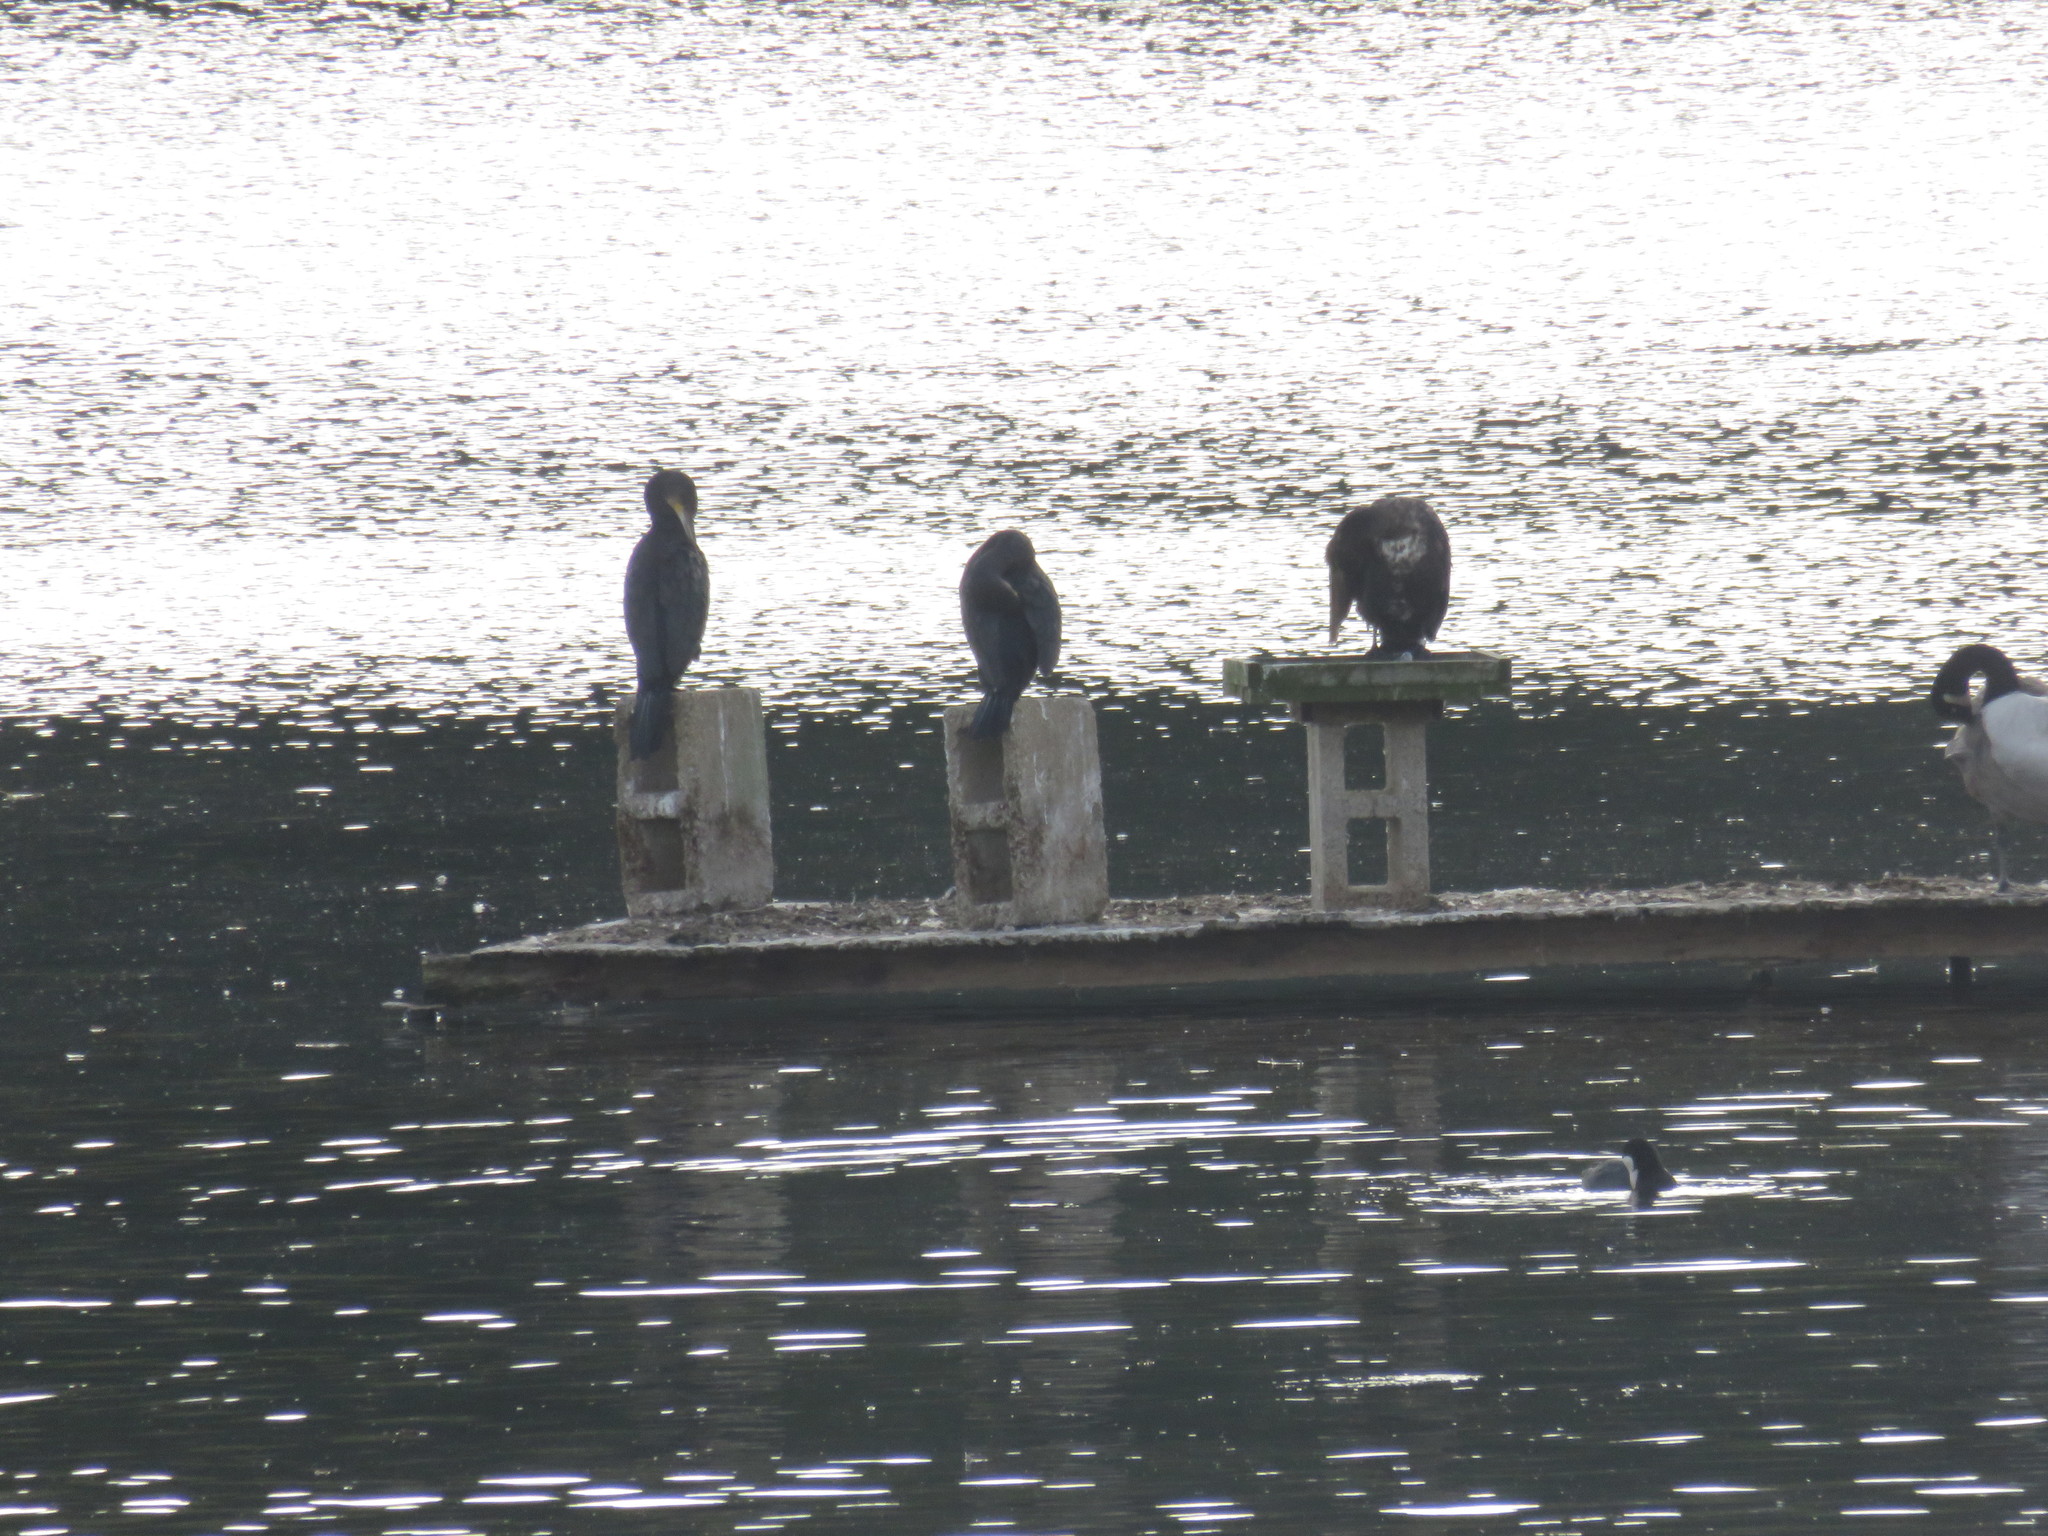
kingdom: Animalia
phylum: Chordata
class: Aves
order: Suliformes
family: Phalacrocoracidae
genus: Phalacrocorax
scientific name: Phalacrocorax carbo
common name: Great cormorant
